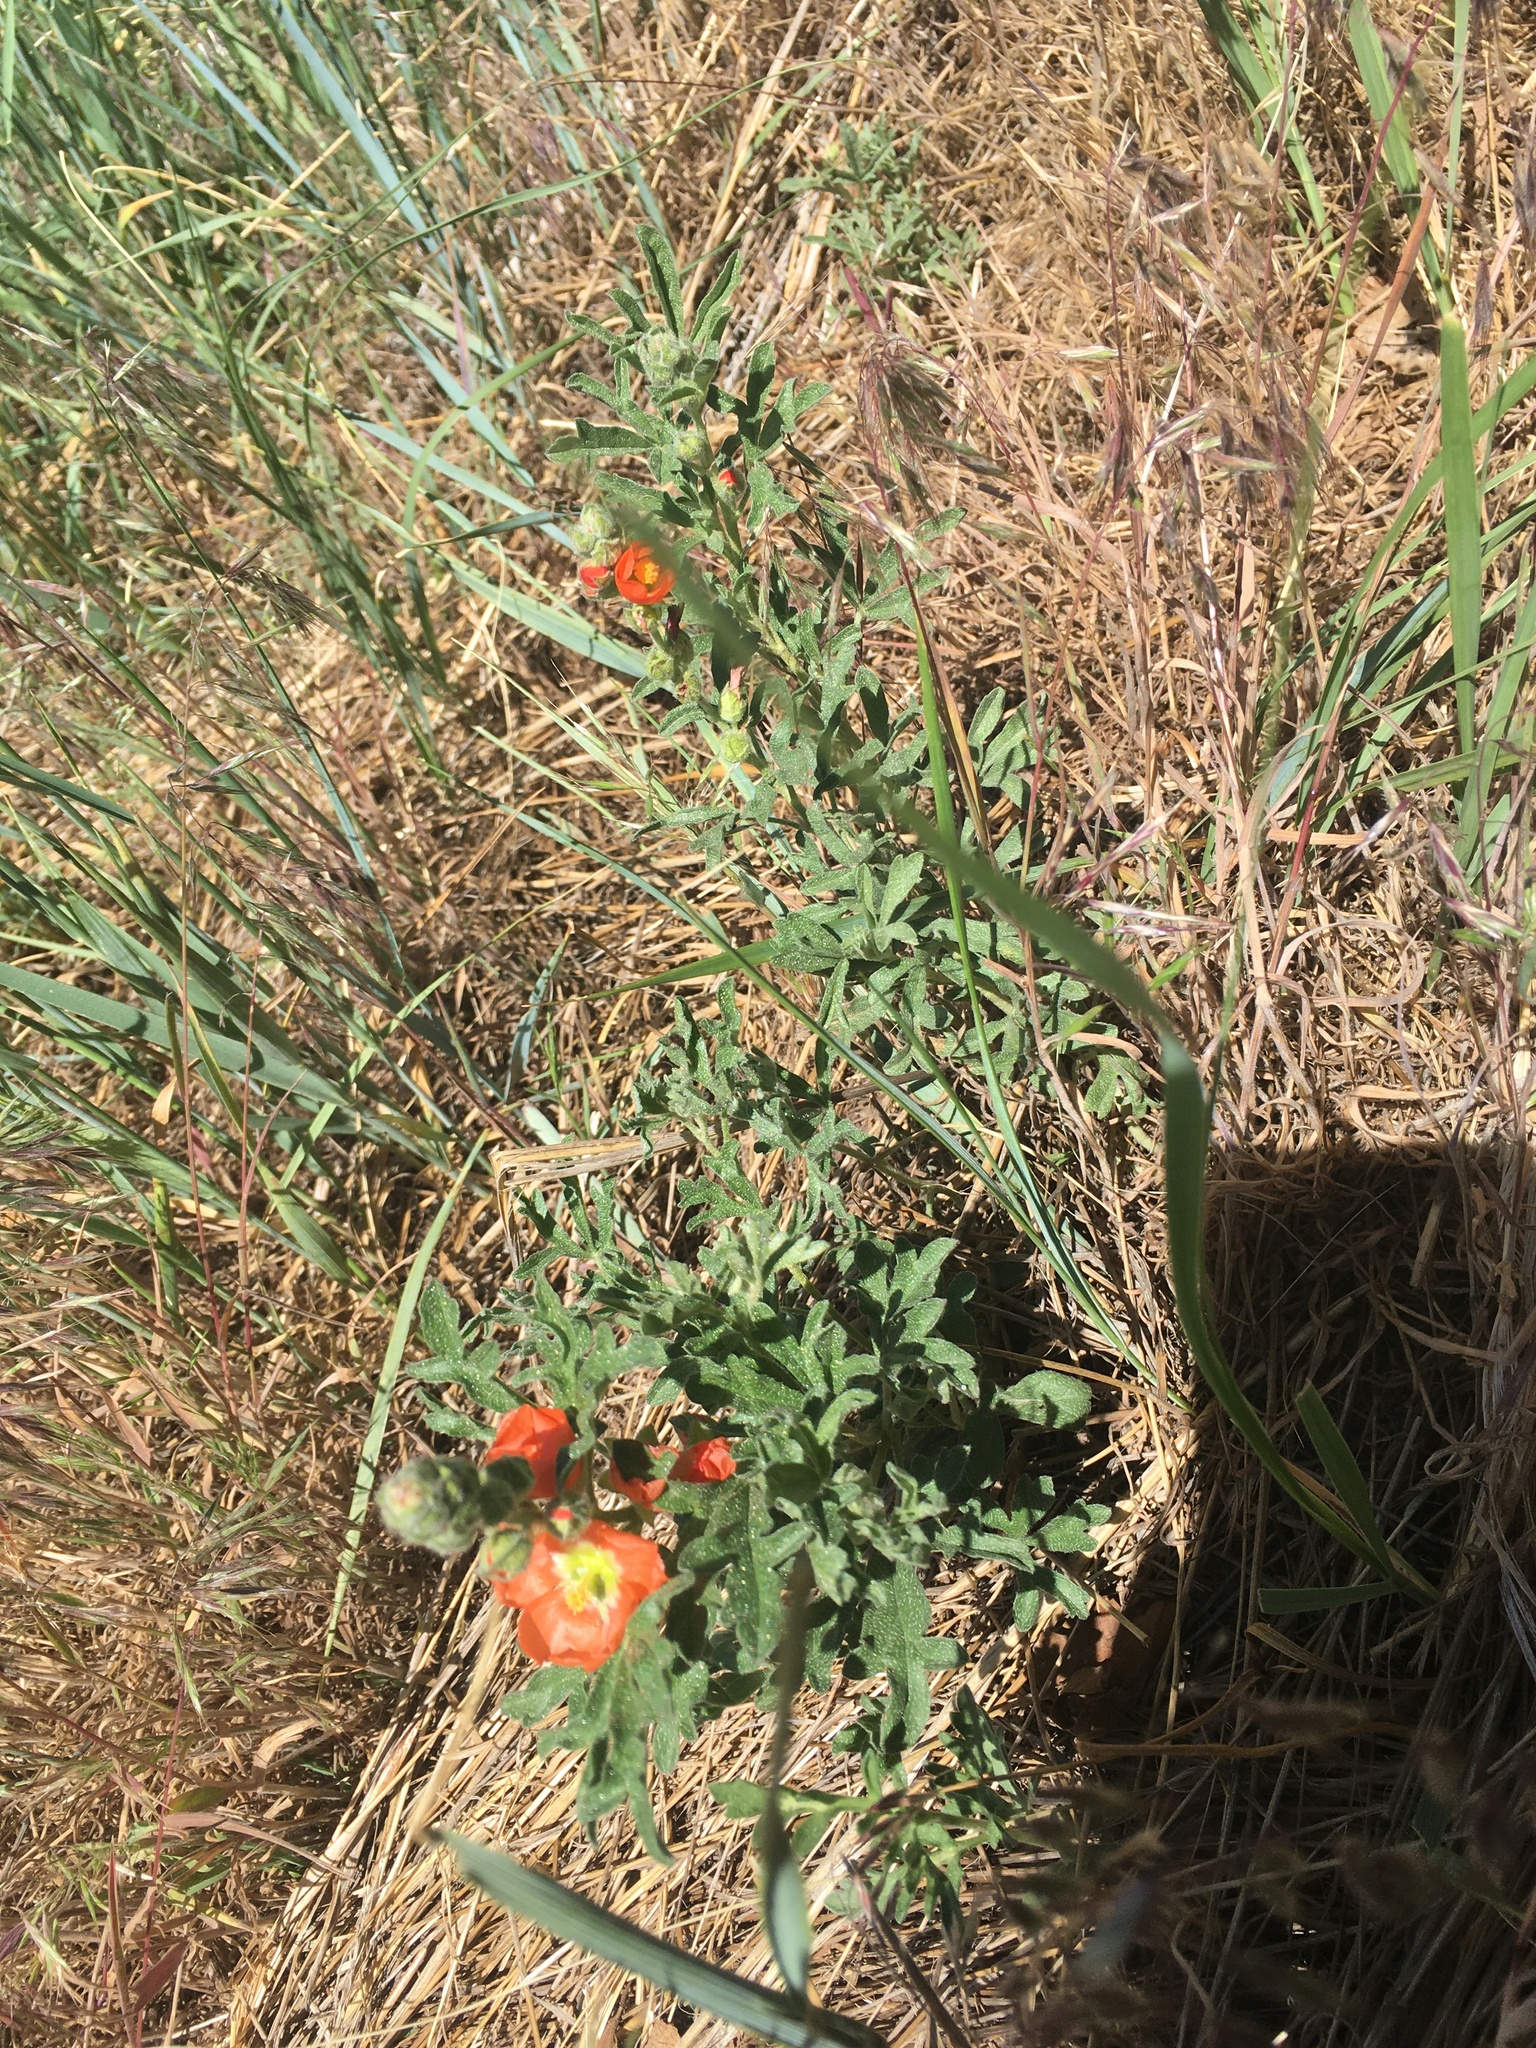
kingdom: Plantae
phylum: Tracheophyta
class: Magnoliopsida
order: Malvales
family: Malvaceae
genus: Sphaeralcea
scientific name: Sphaeralcea coccinea
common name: Moss-rose
